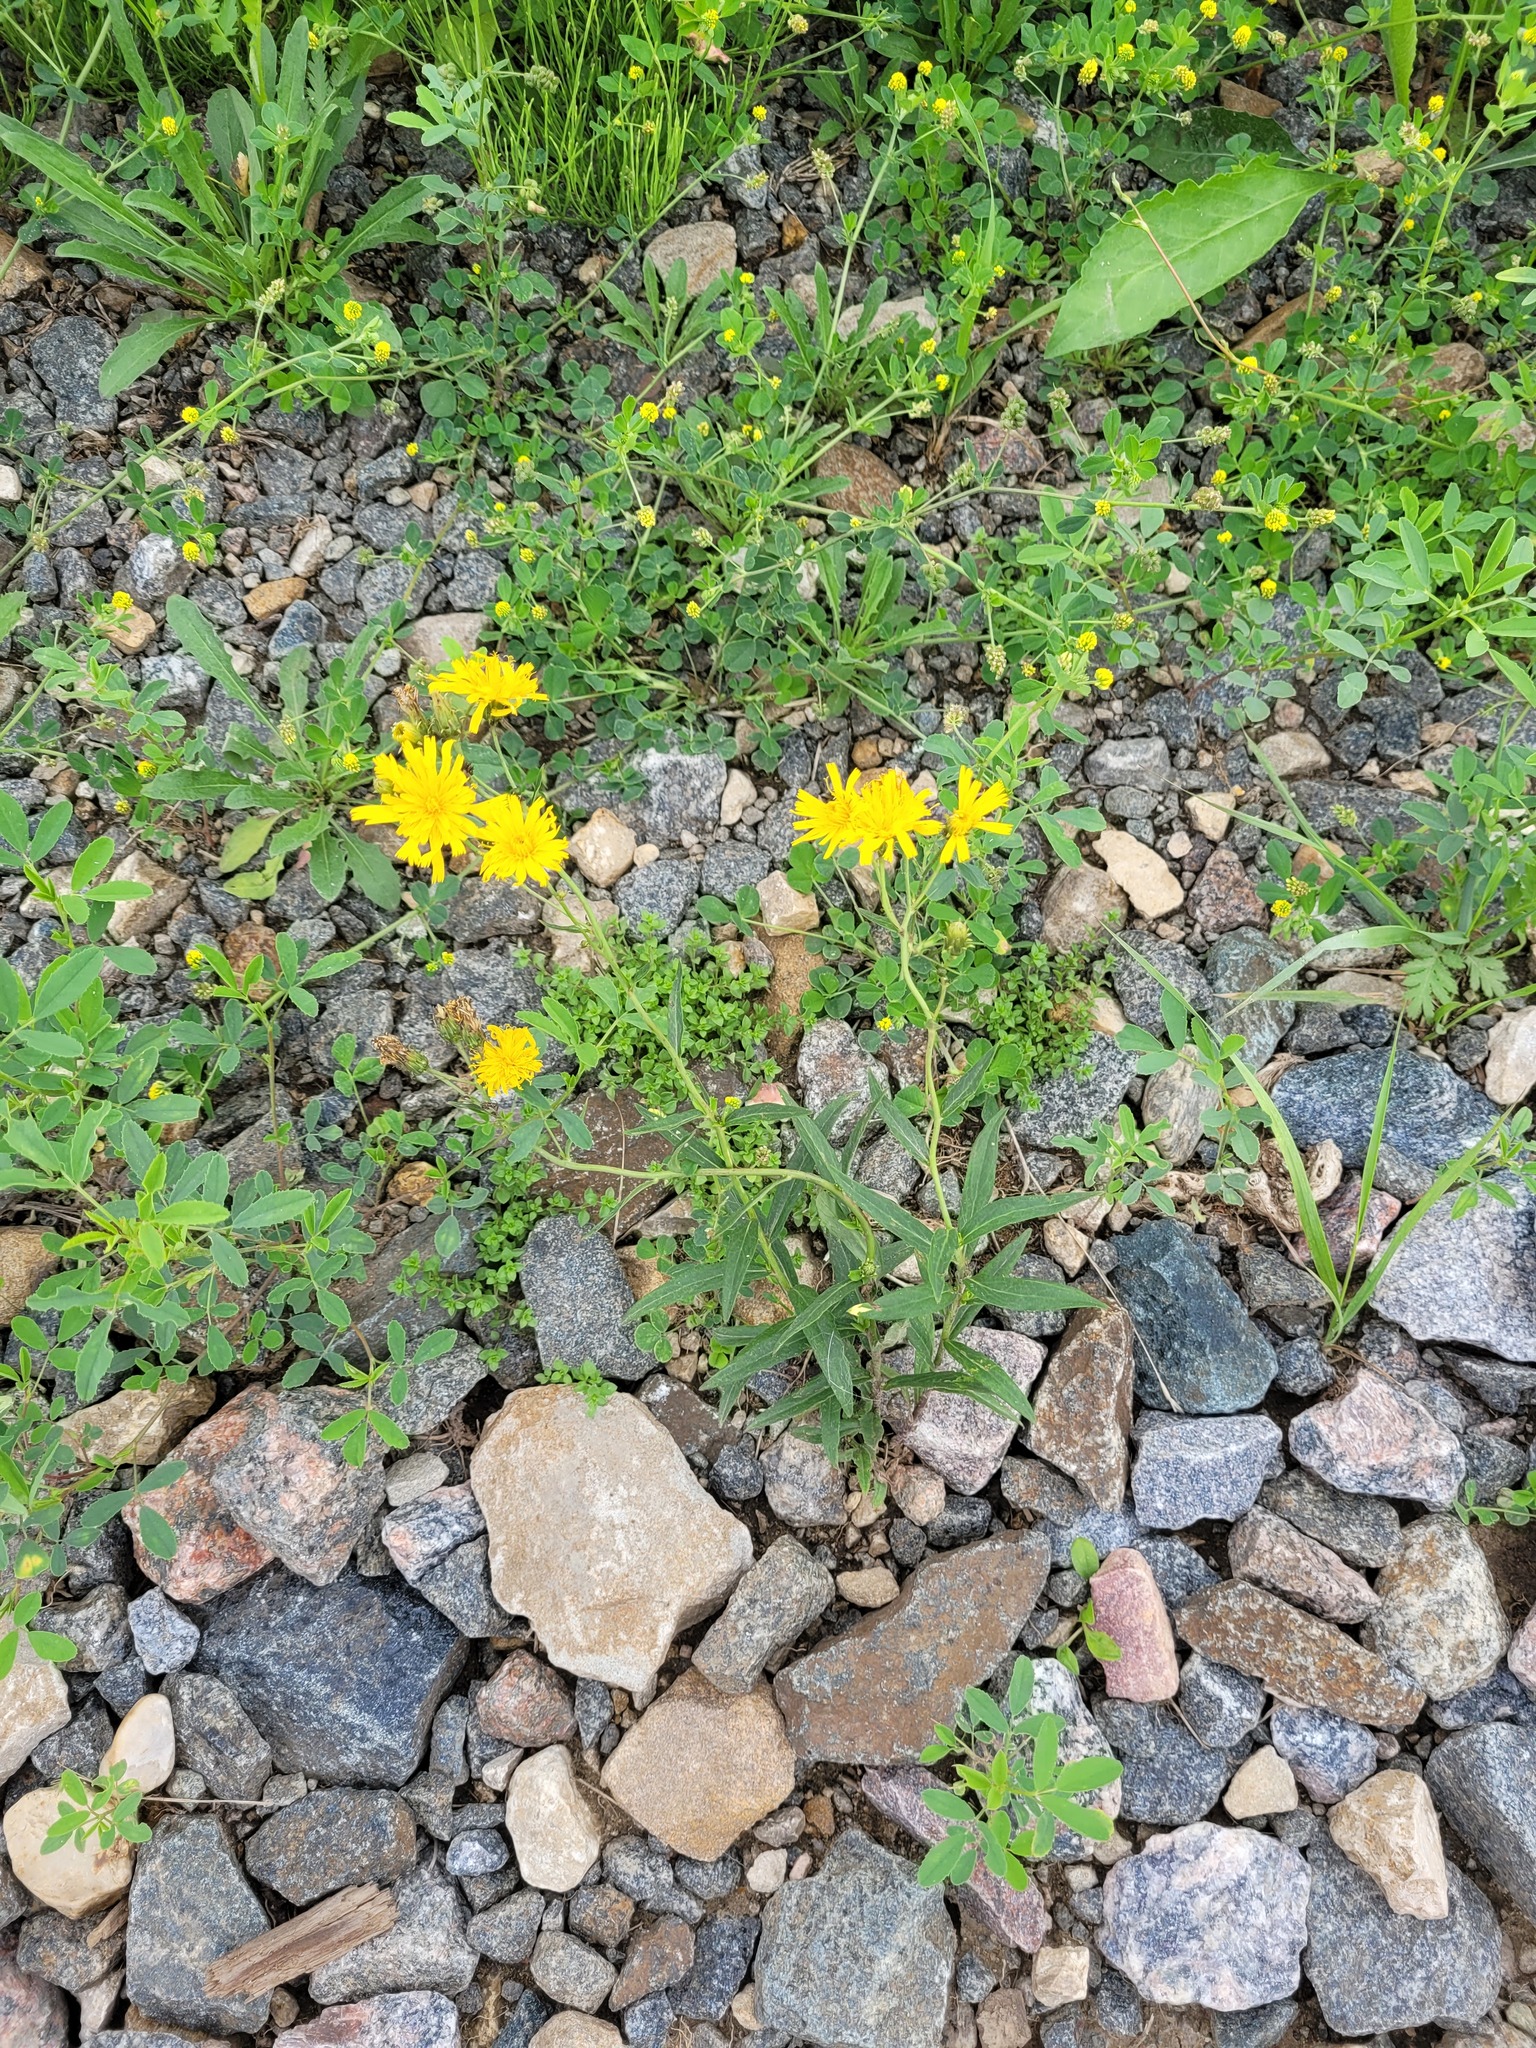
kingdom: Plantae
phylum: Tracheophyta
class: Magnoliopsida
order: Asterales
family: Asteraceae
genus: Hieracium
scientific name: Hieracium umbellatum
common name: Northern hawkweed
